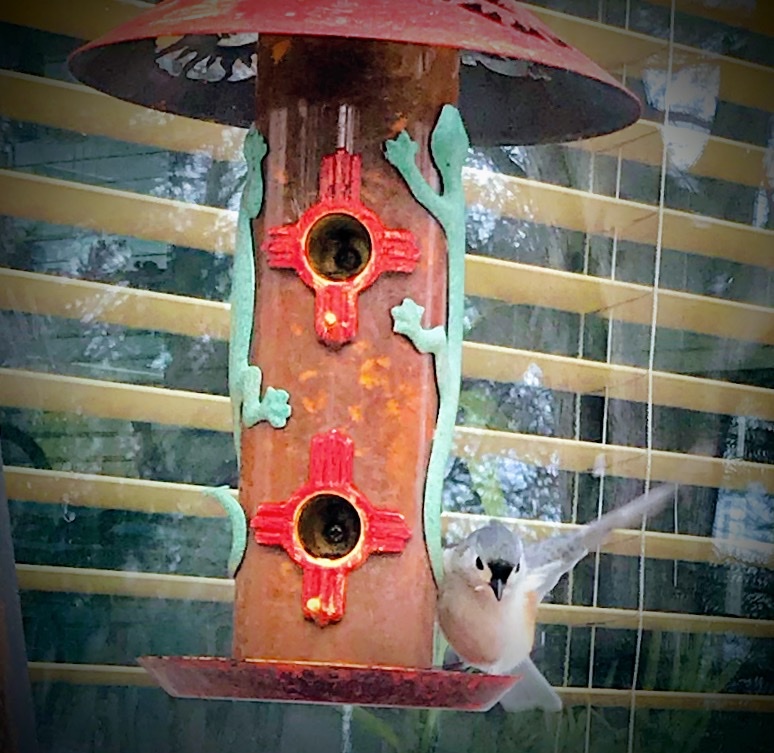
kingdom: Animalia
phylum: Chordata
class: Aves
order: Passeriformes
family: Paridae
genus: Baeolophus
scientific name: Baeolophus bicolor
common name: Tufted titmouse
